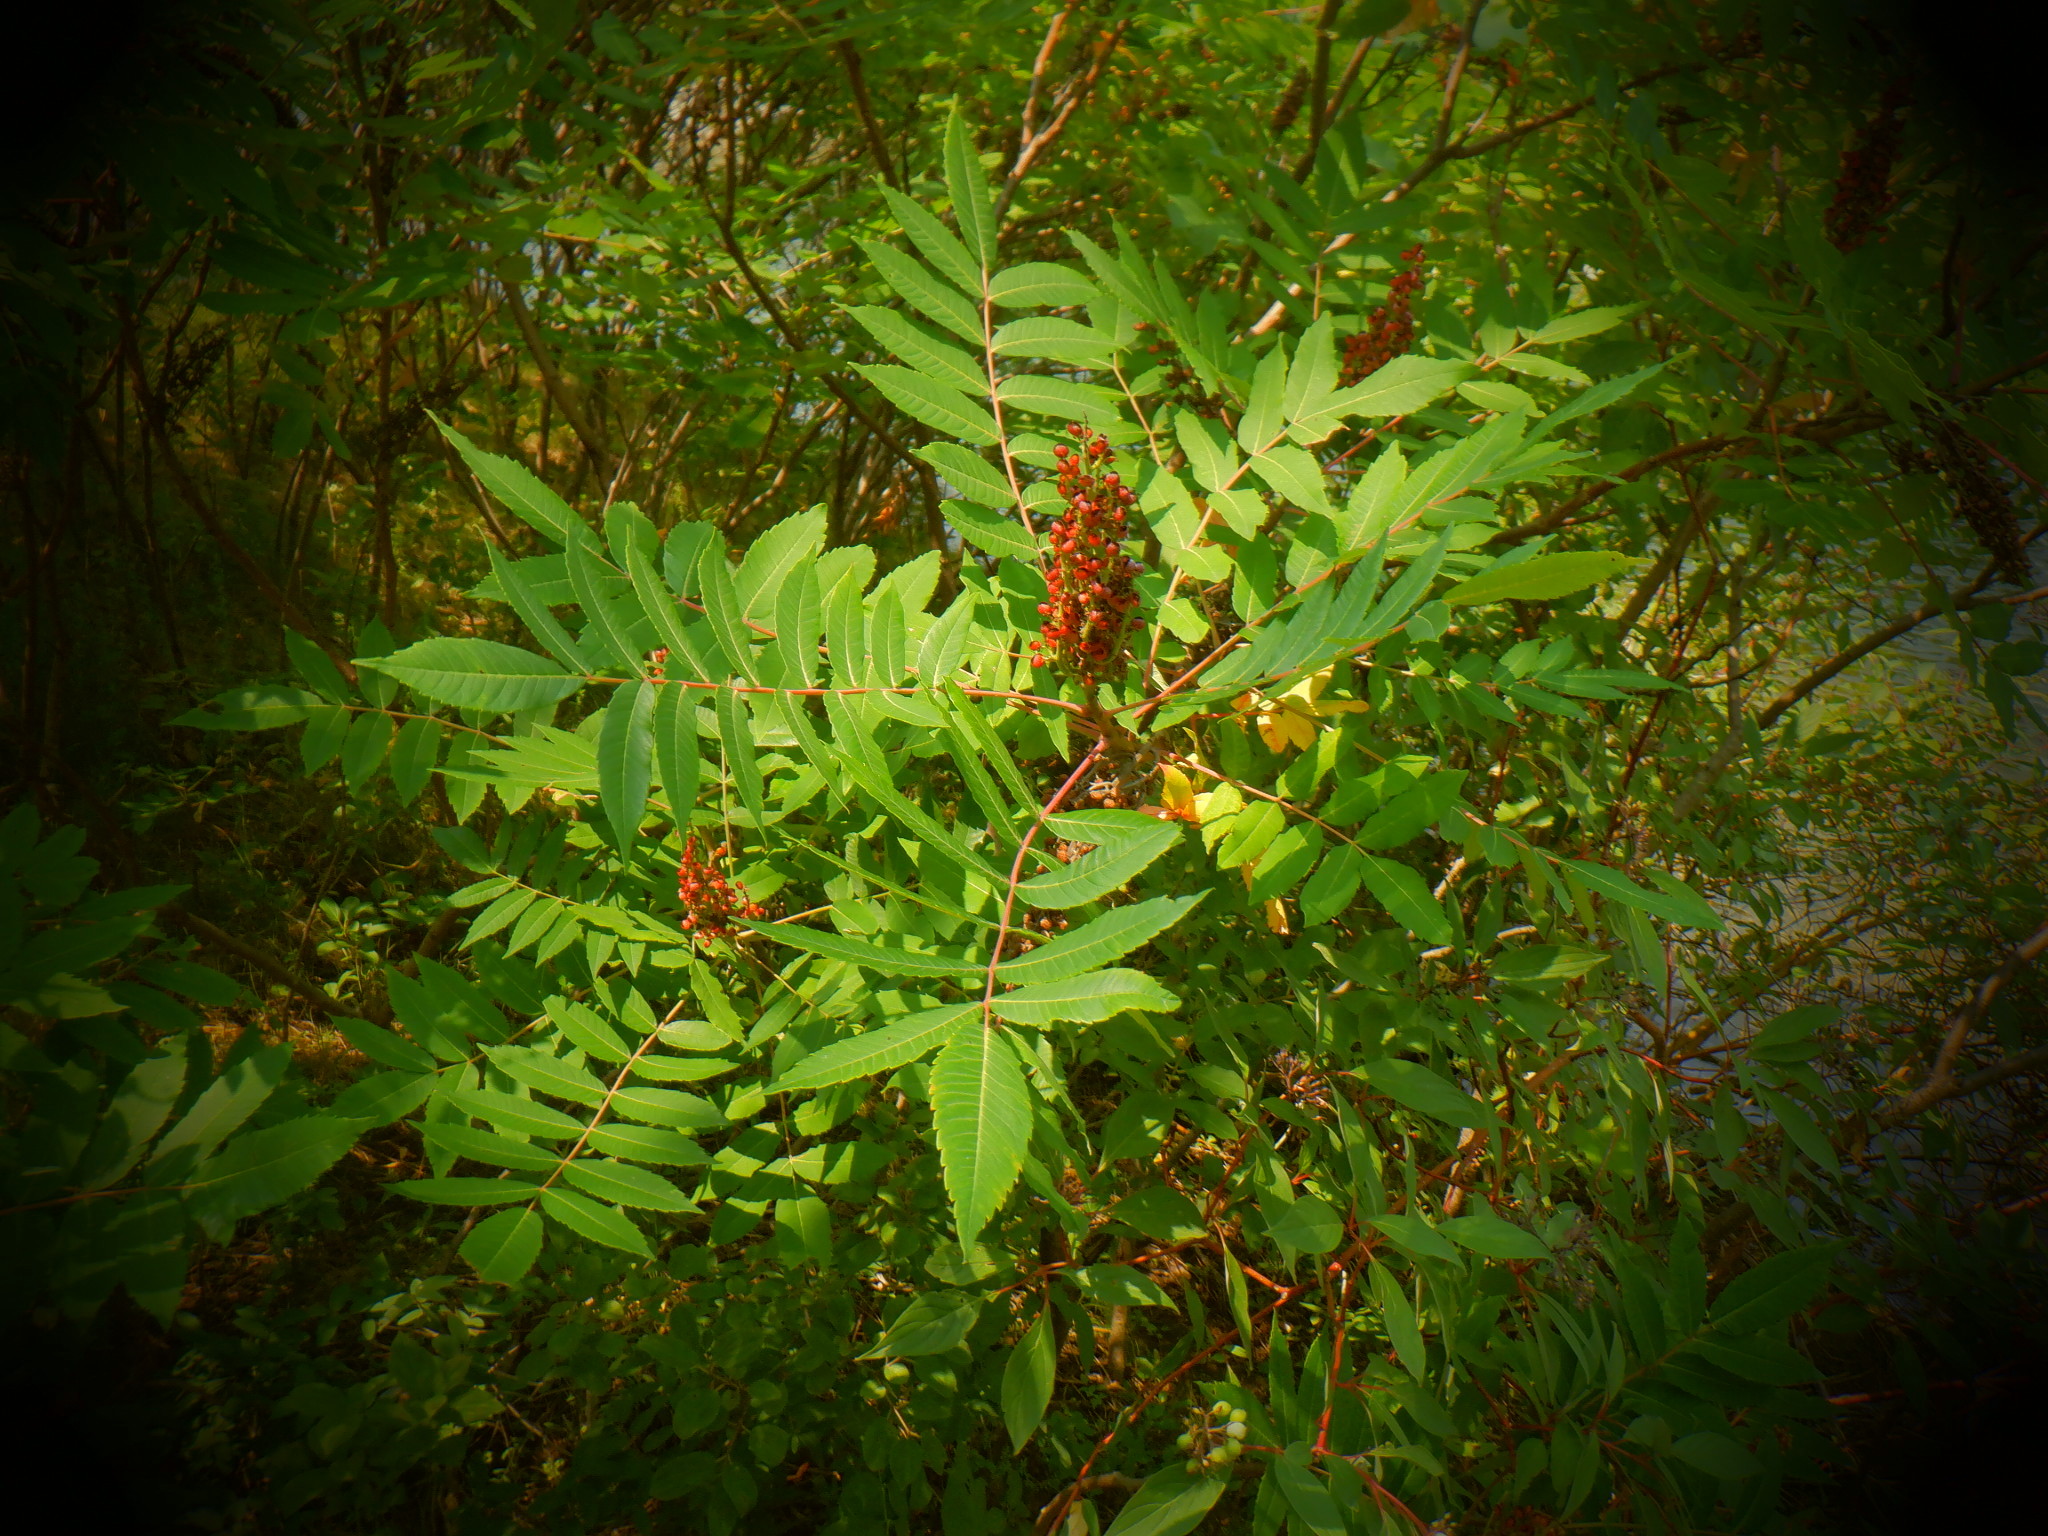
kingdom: Plantae
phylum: Tracheophyta
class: Magnoliopsida
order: Sapindales
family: Anacardiaceae
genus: Rhus
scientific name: Rhus glabra
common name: Scarlet sumac
